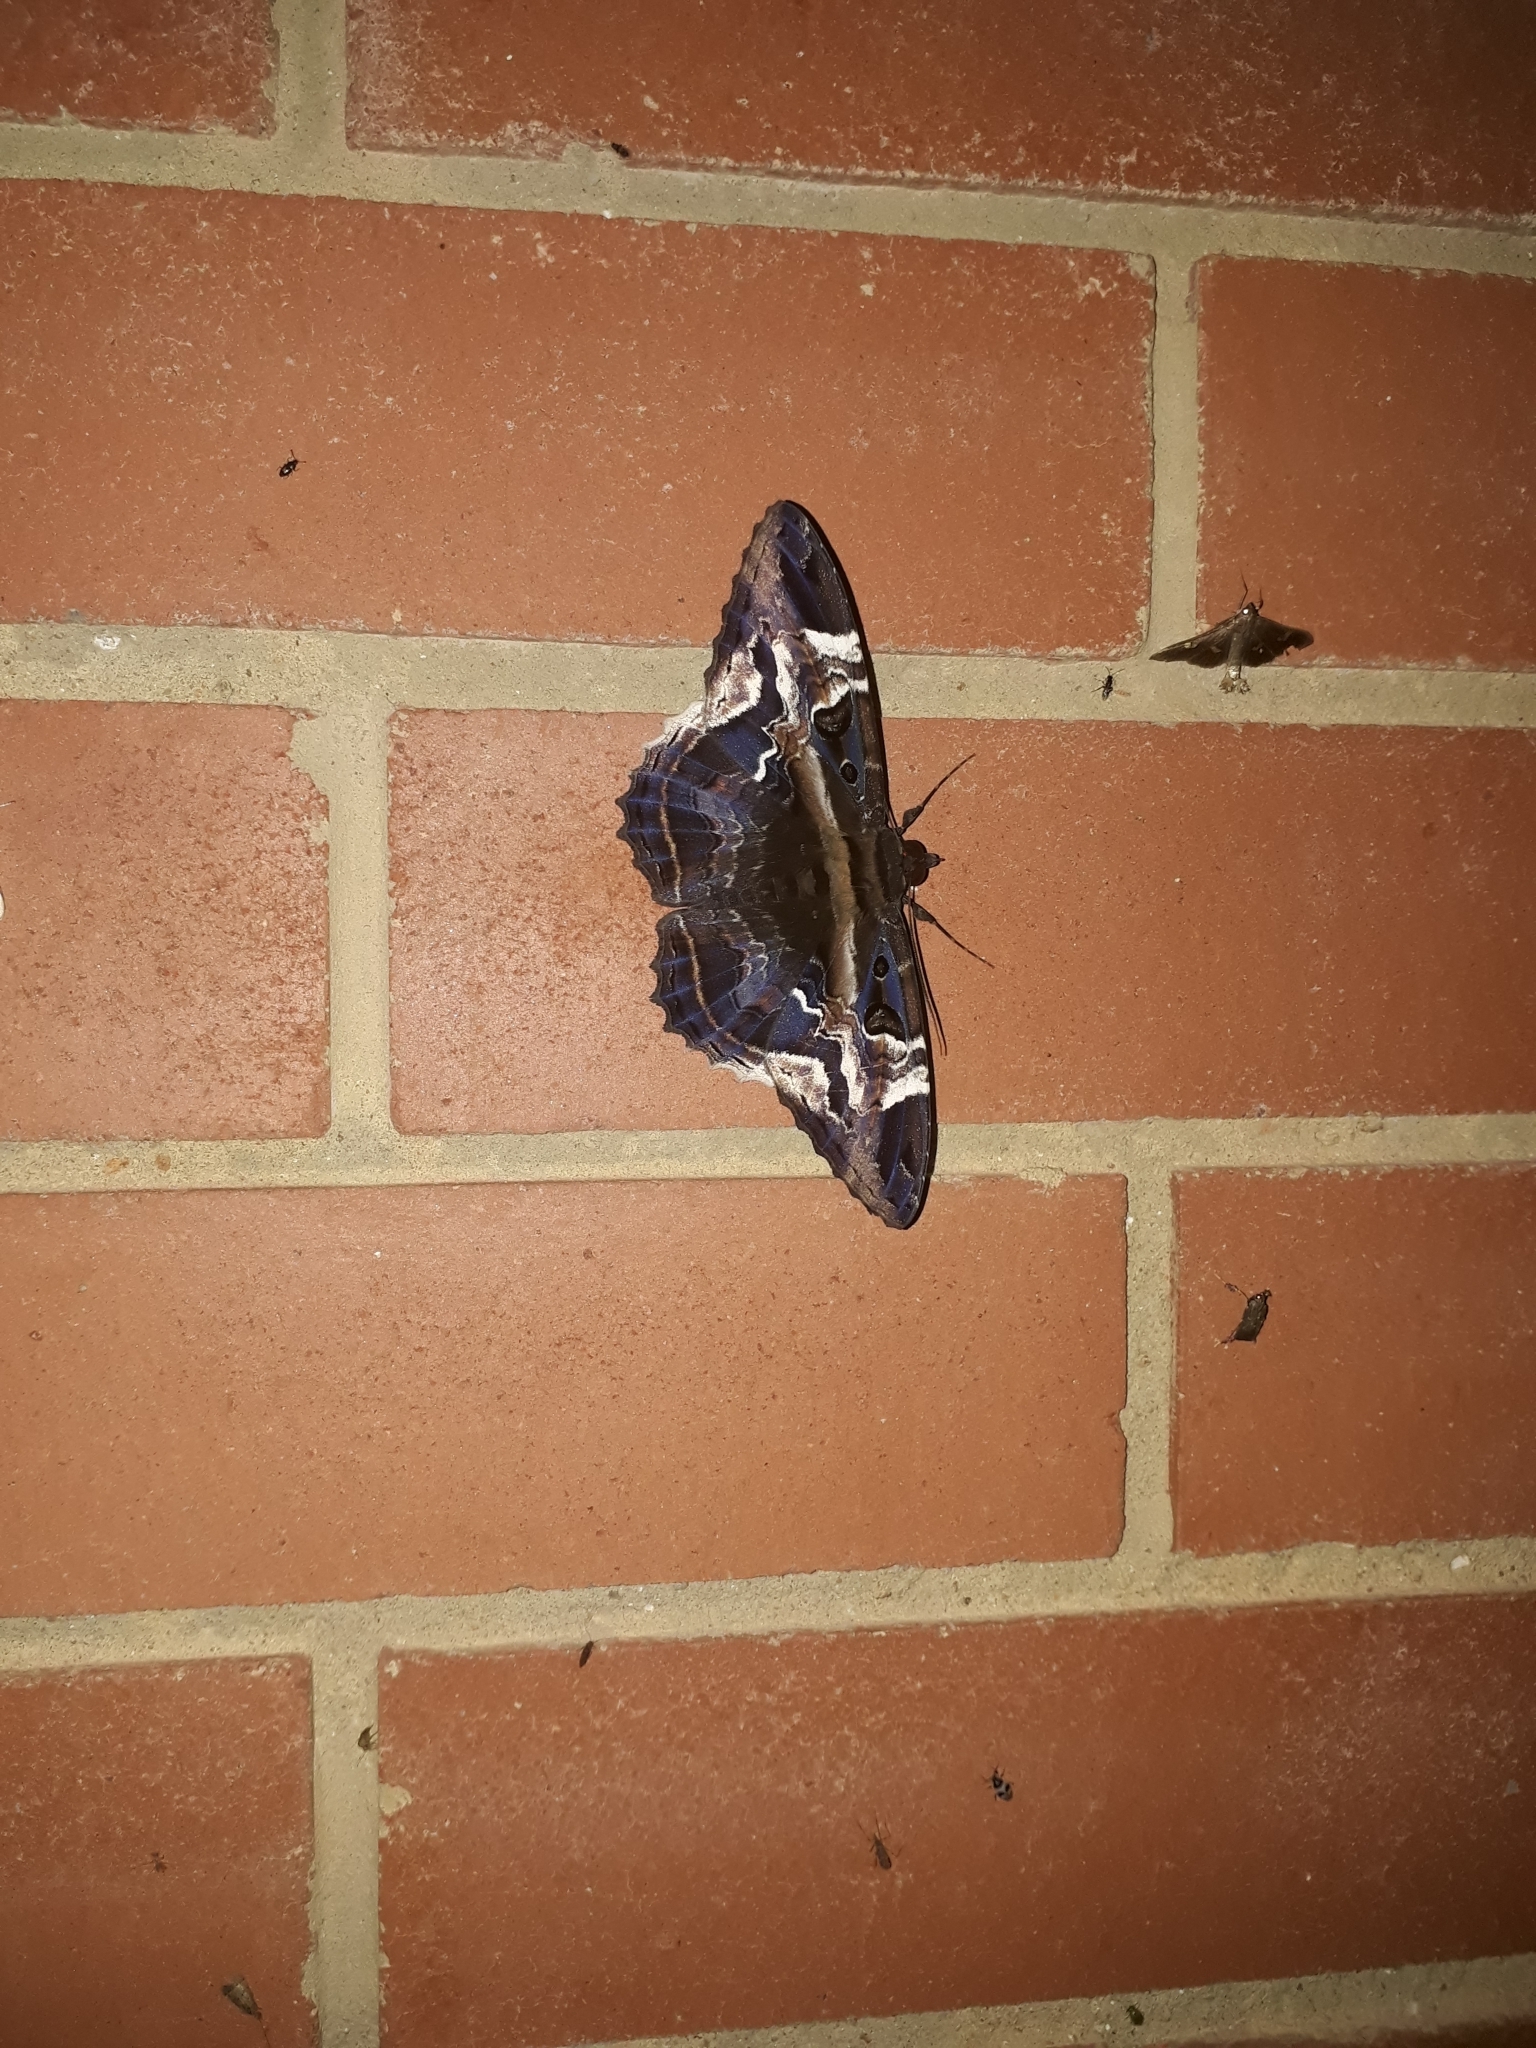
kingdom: Animalia
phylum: Arthropoda
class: Insecta
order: Lepidoptera
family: Erebidae
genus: Feigeria
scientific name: Feigeria herilia
